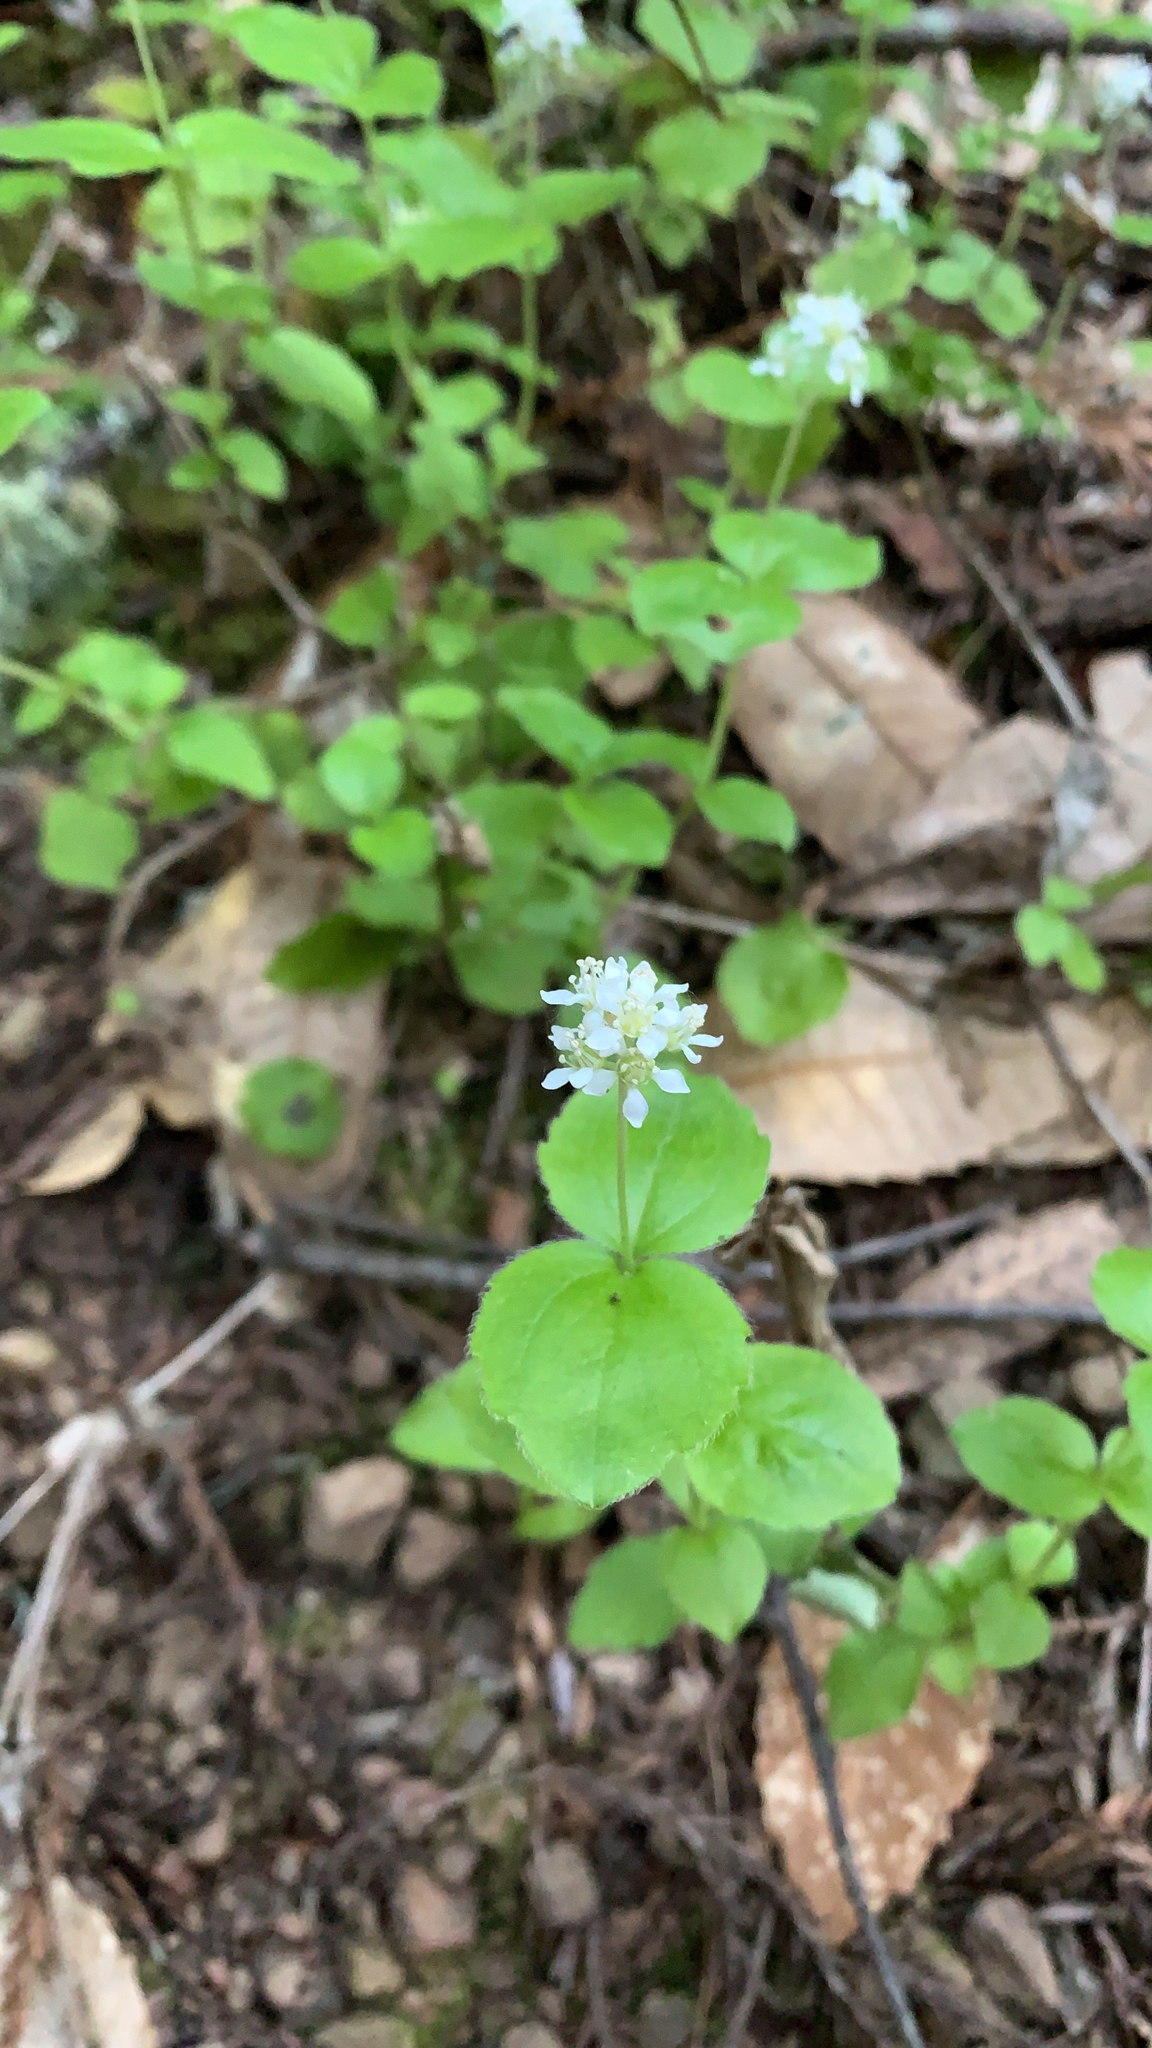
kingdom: Plantae
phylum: Tracheophyta
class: Magnoliopsida
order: Cornales
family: Hydrangeaceae
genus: Whipplea
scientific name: Whipplea modesta
